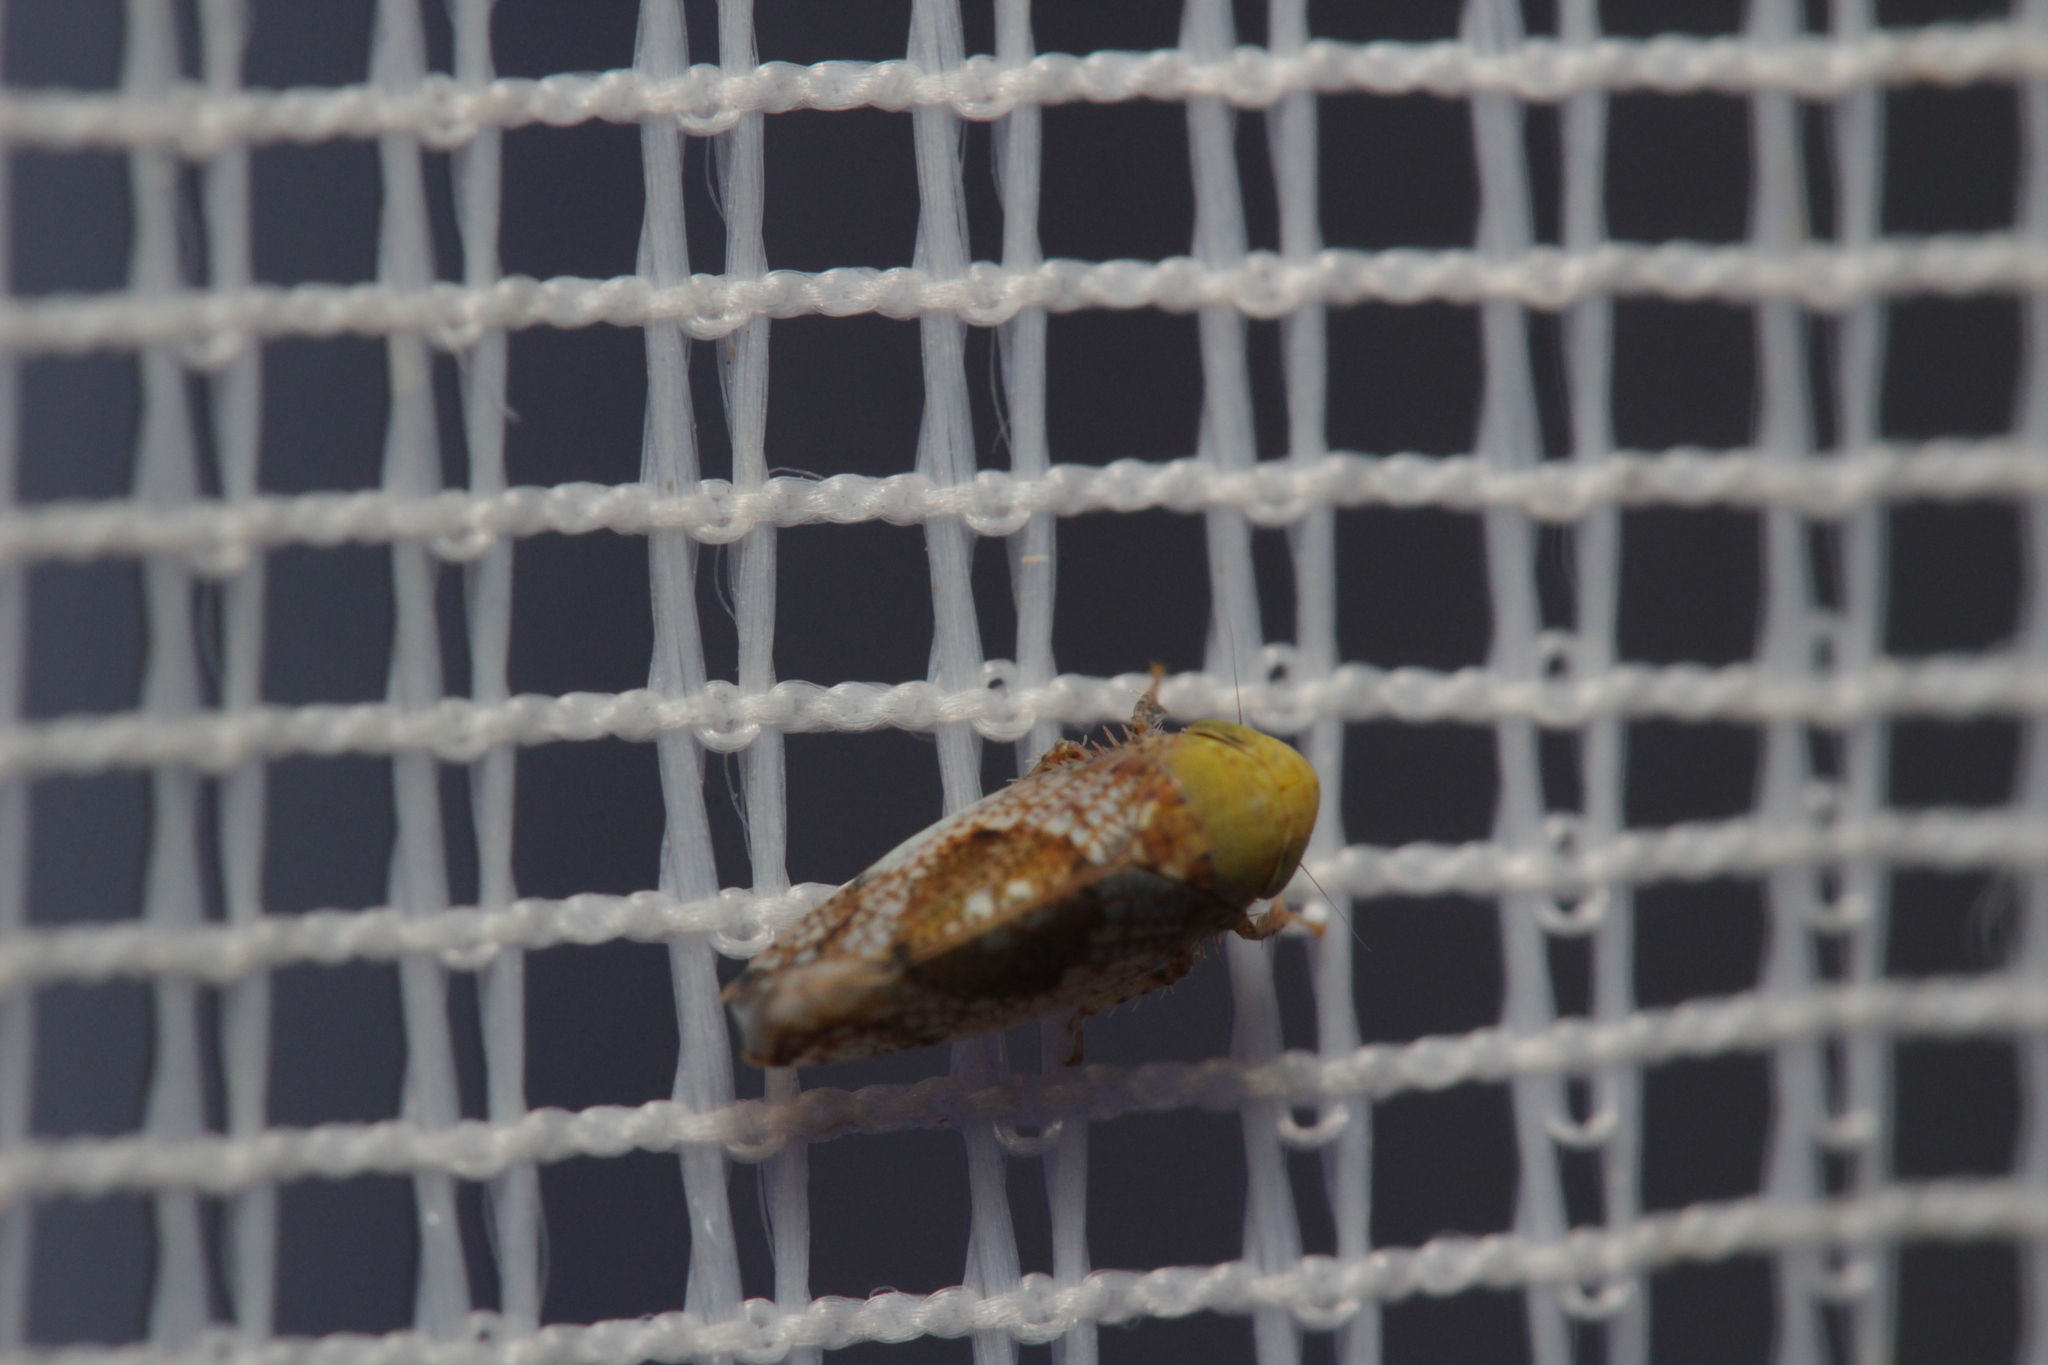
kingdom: Animalia
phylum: Arthropoda
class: Insecta
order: Hemiptera
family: Cicadellidae
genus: Hishimonus
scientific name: Hishimonus hamatus
